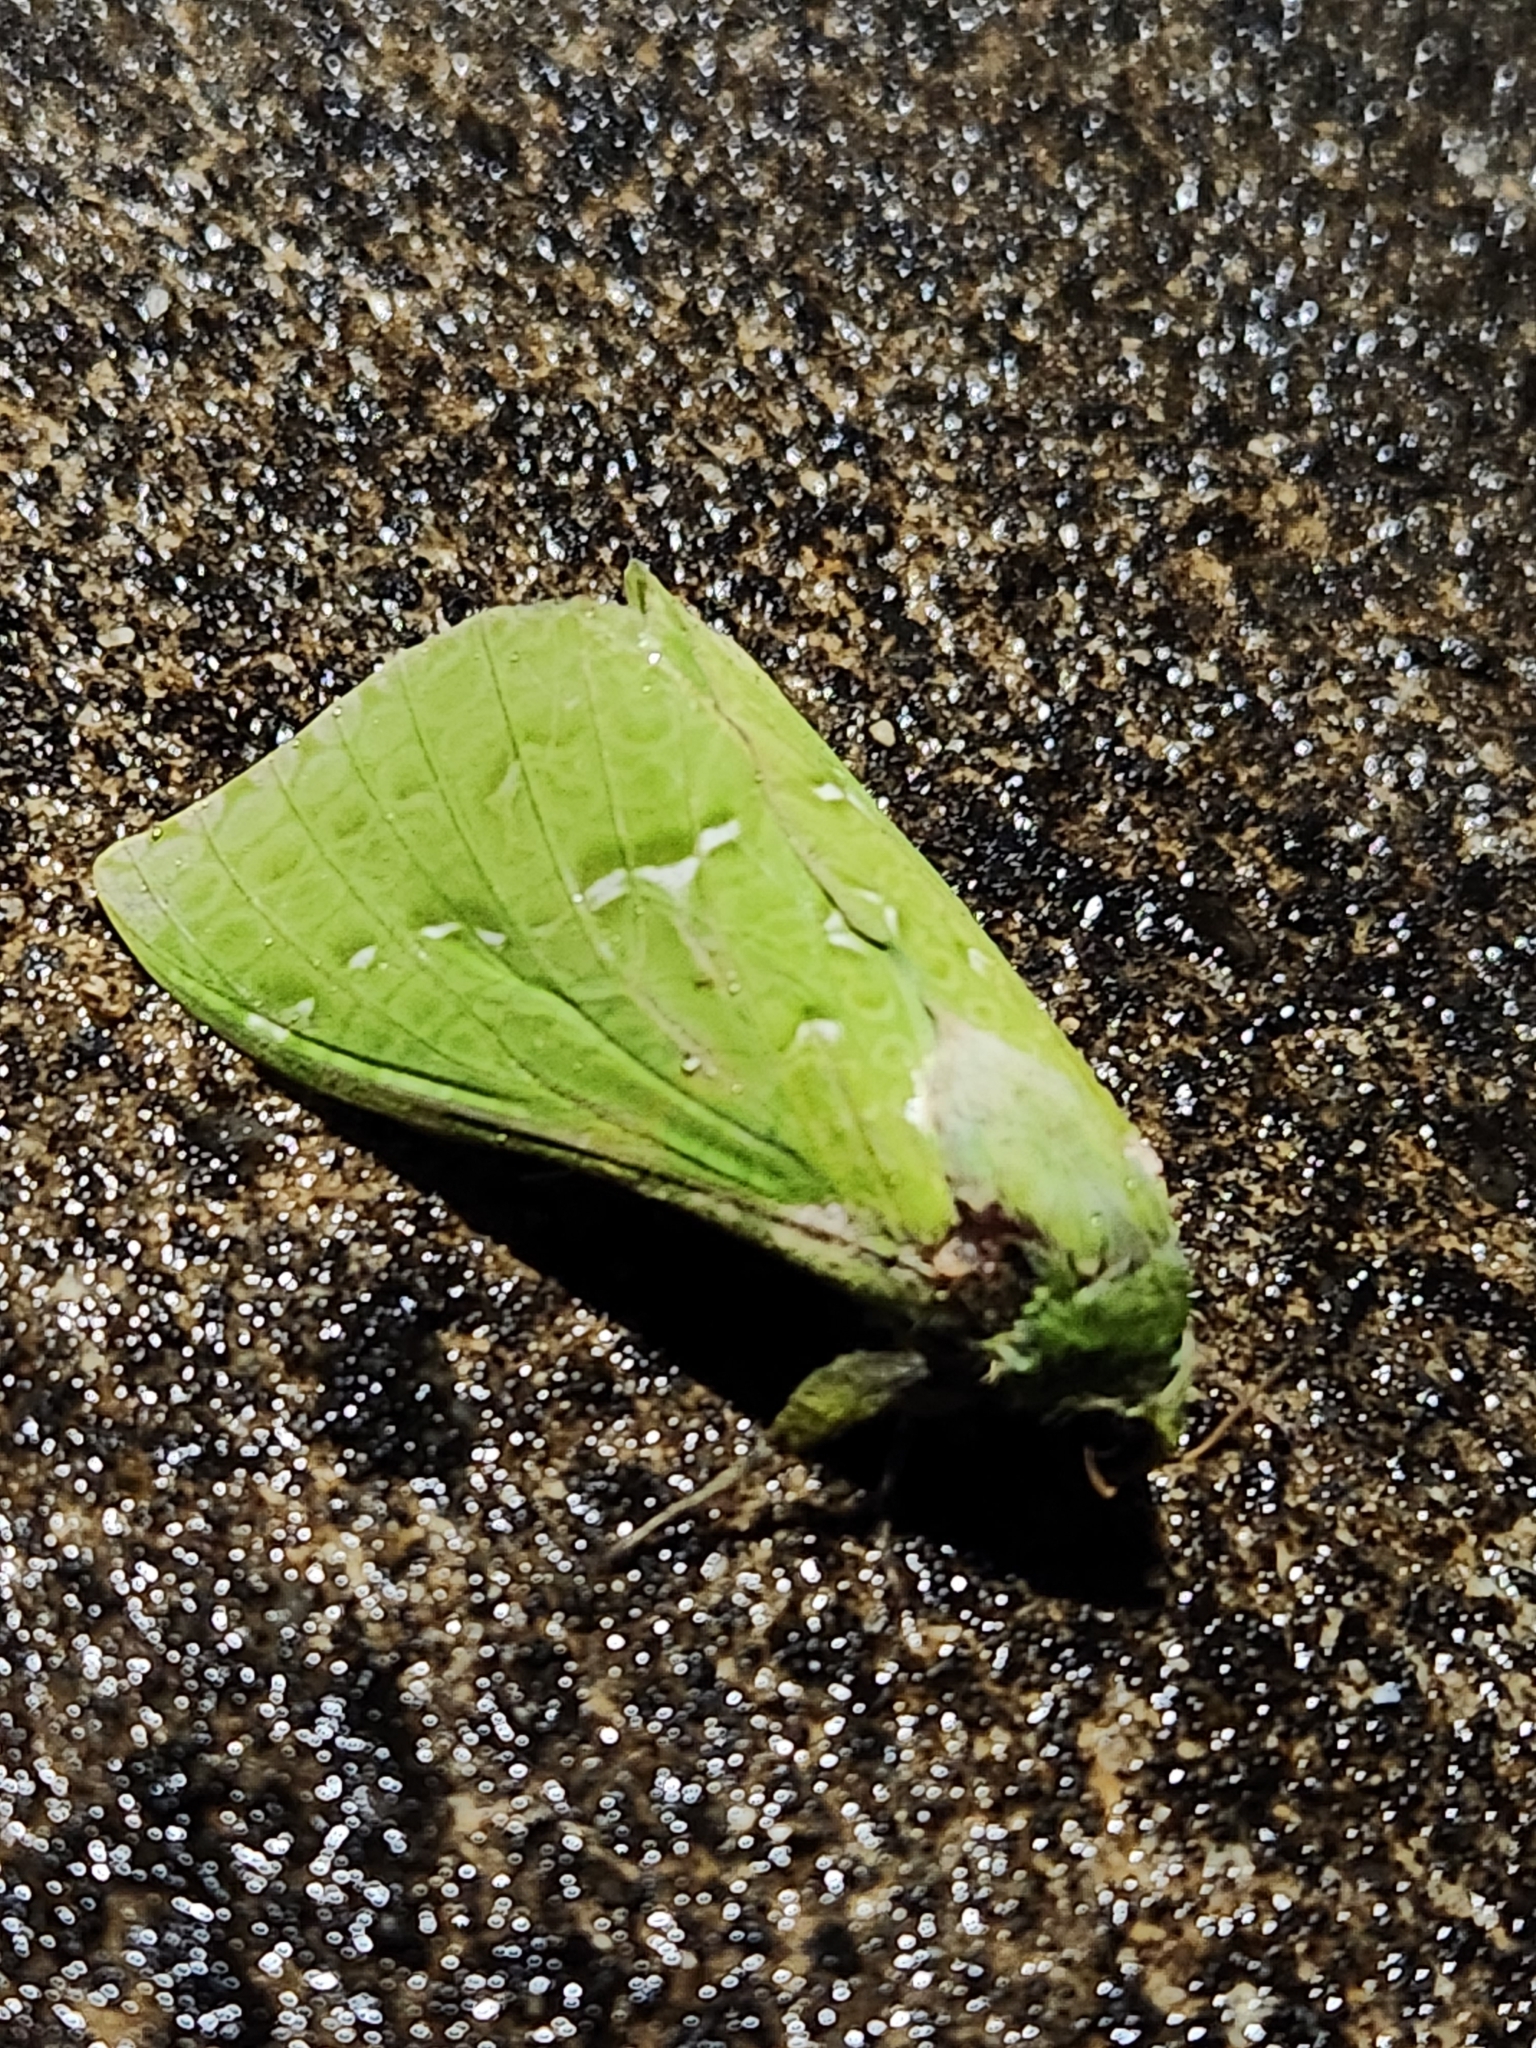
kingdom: Animalia
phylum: Arthropoda
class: Insecta
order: Lepidoptera
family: Hepialidae
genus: Aenetus
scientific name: Aenetus virescens
